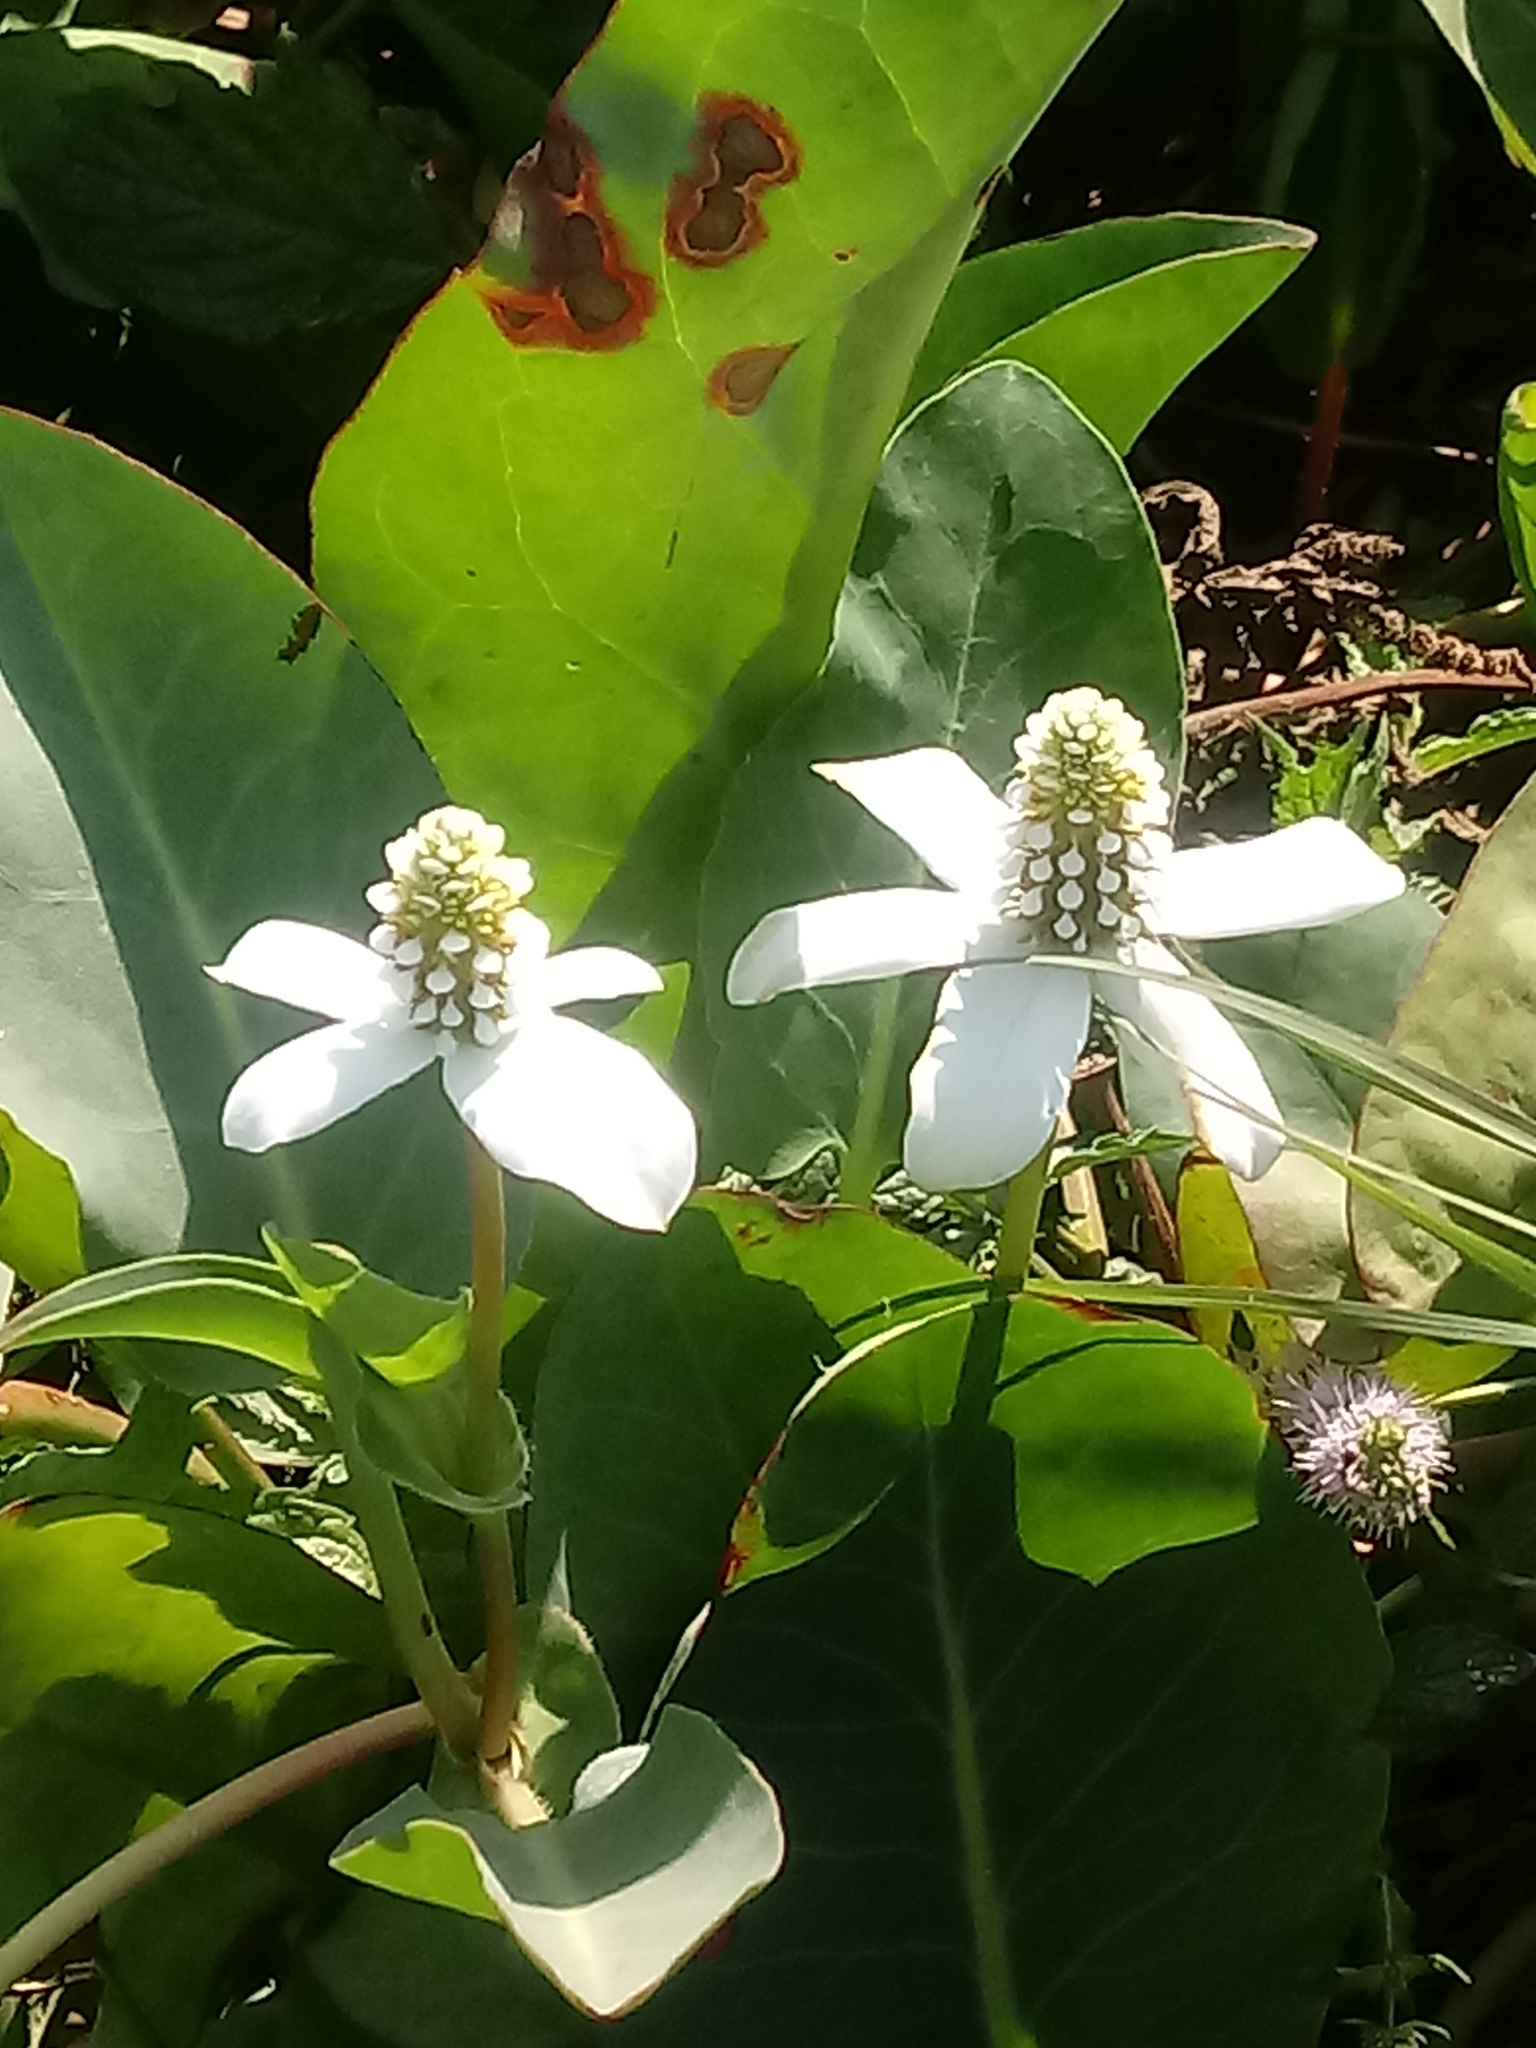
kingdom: Plantae
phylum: Tracheophyta
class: Magnoliopsida
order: Piperales
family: Saururaceae
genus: Anemopsis
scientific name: Anemopsis californica
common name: Apache-beads
